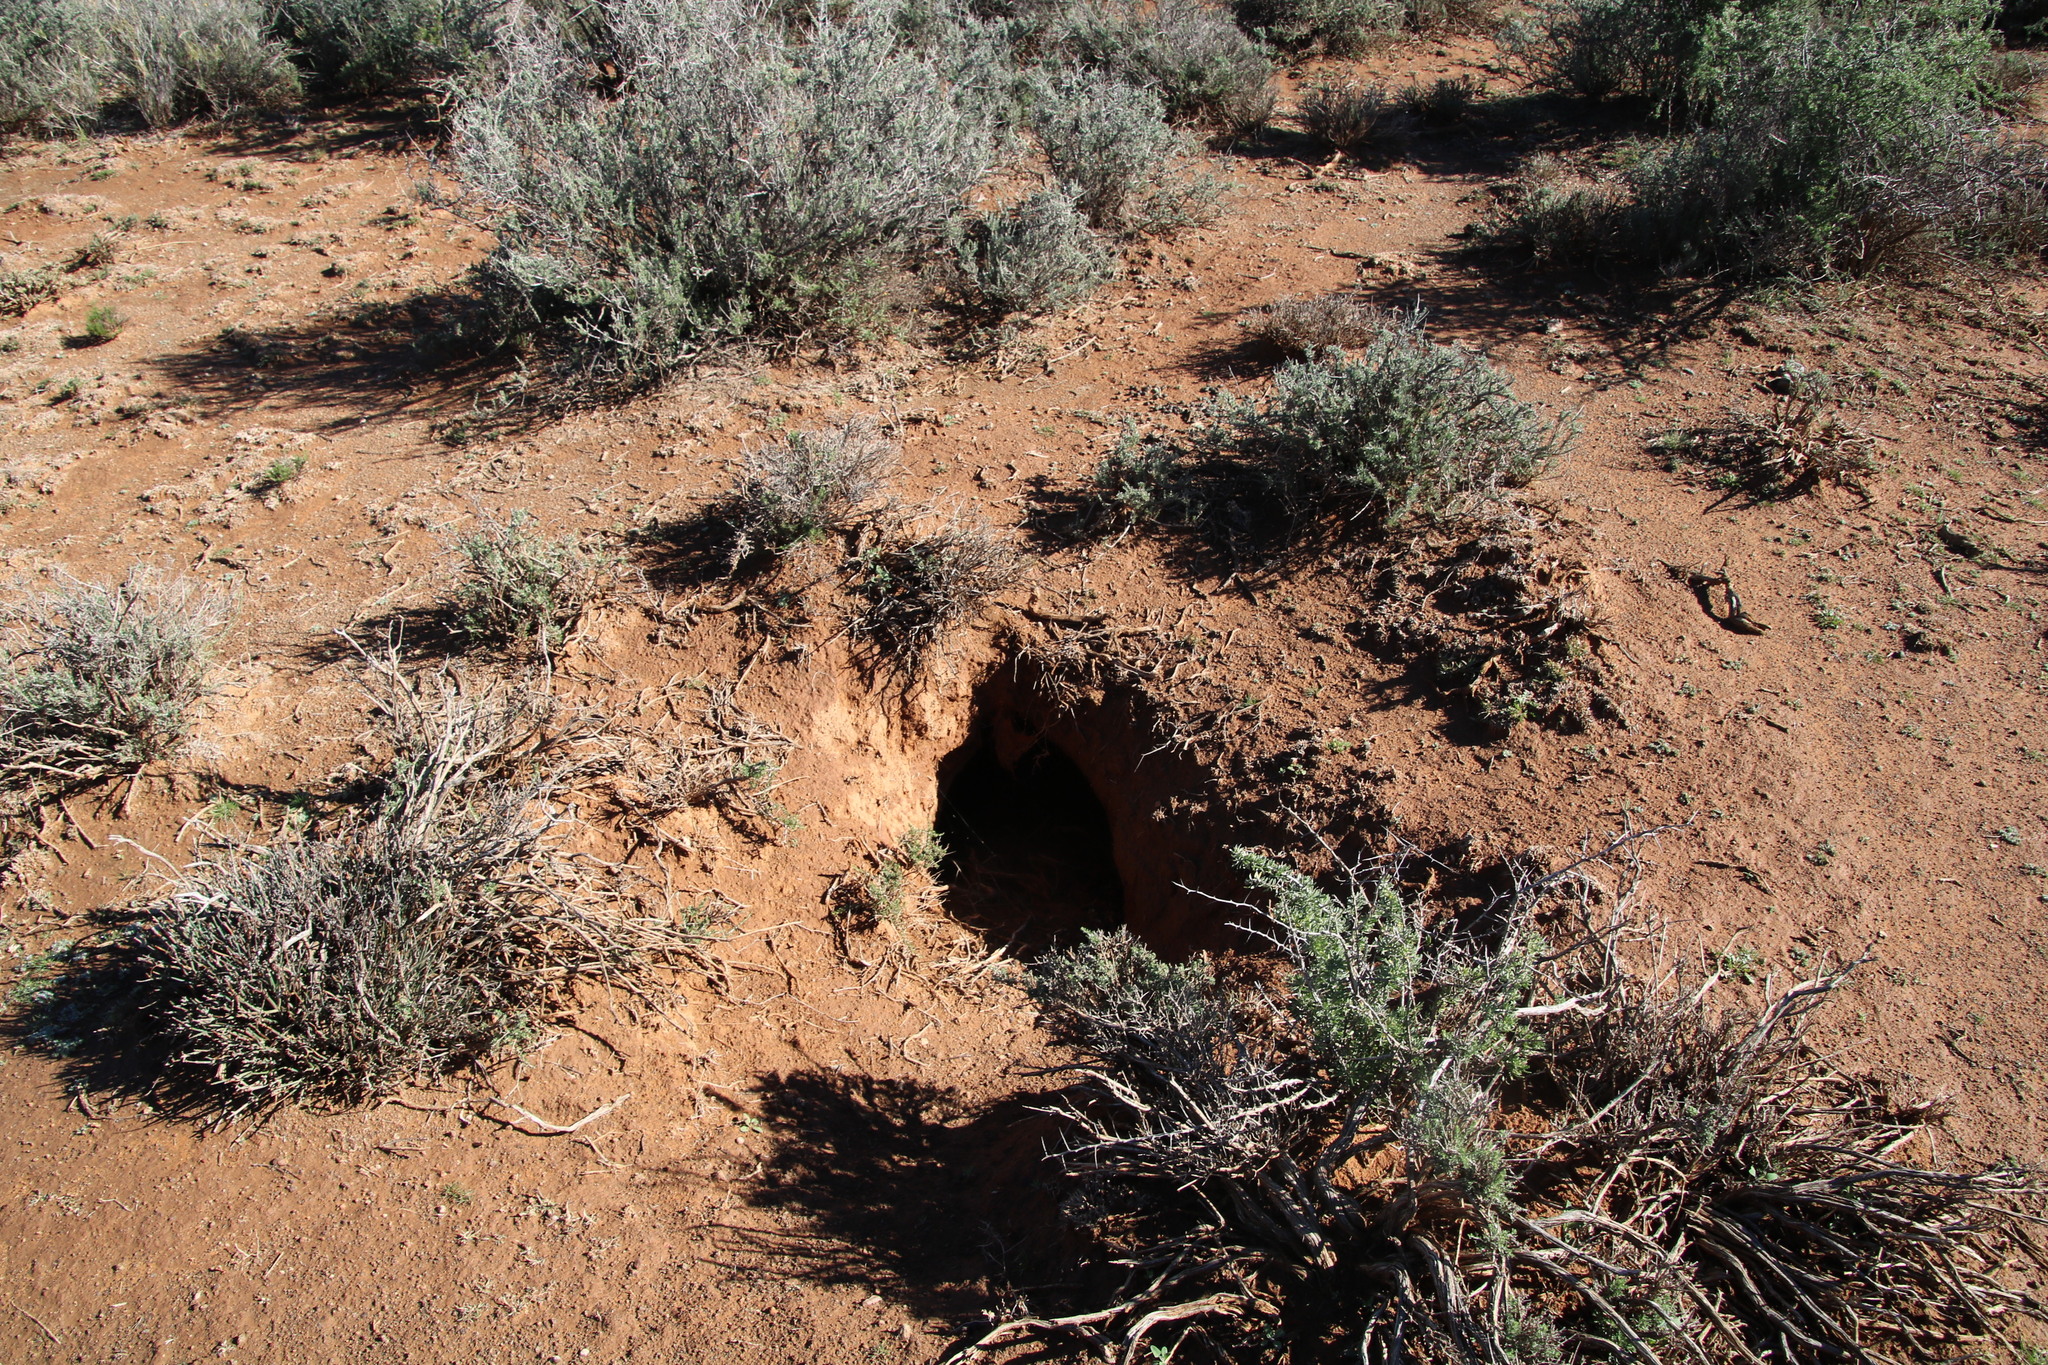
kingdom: Animalia
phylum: Chordata
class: Mammalia
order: Tubulidentata
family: Orycteropodidae
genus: Orycteropus
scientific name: Orycteropus afer
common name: Aardvark
